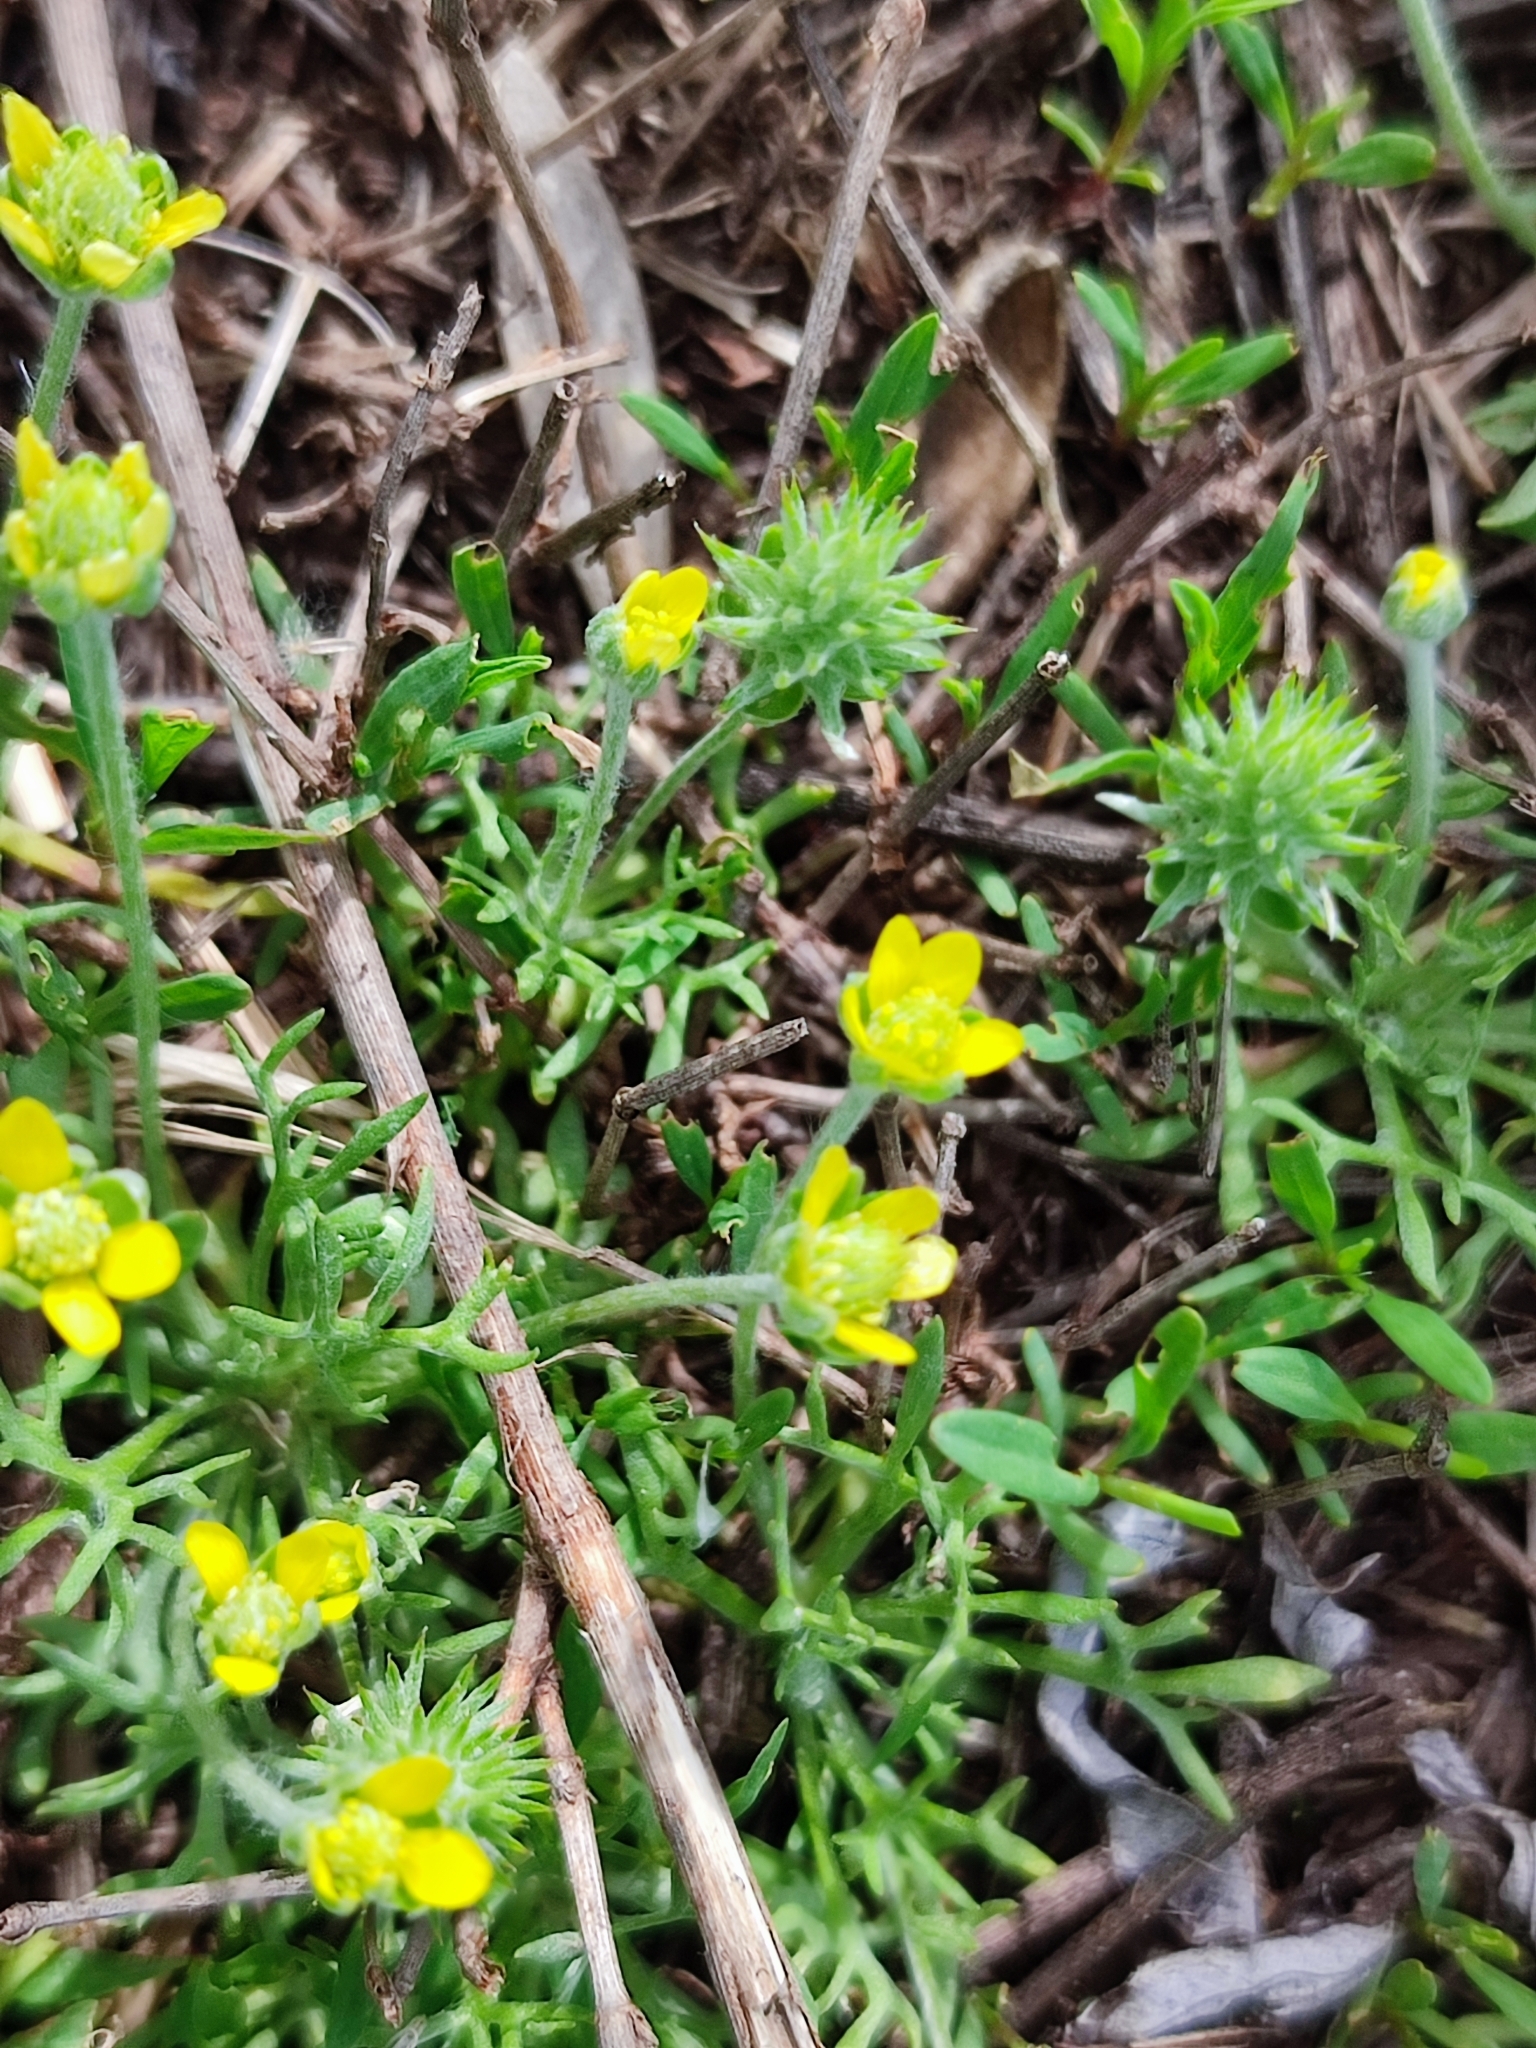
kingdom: Plantae
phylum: Tracheophyta
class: Magnoliopsida
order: Ranunculales
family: Ranunculaceae
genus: Ceratocephala
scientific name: Ceratocephala orthoceras
